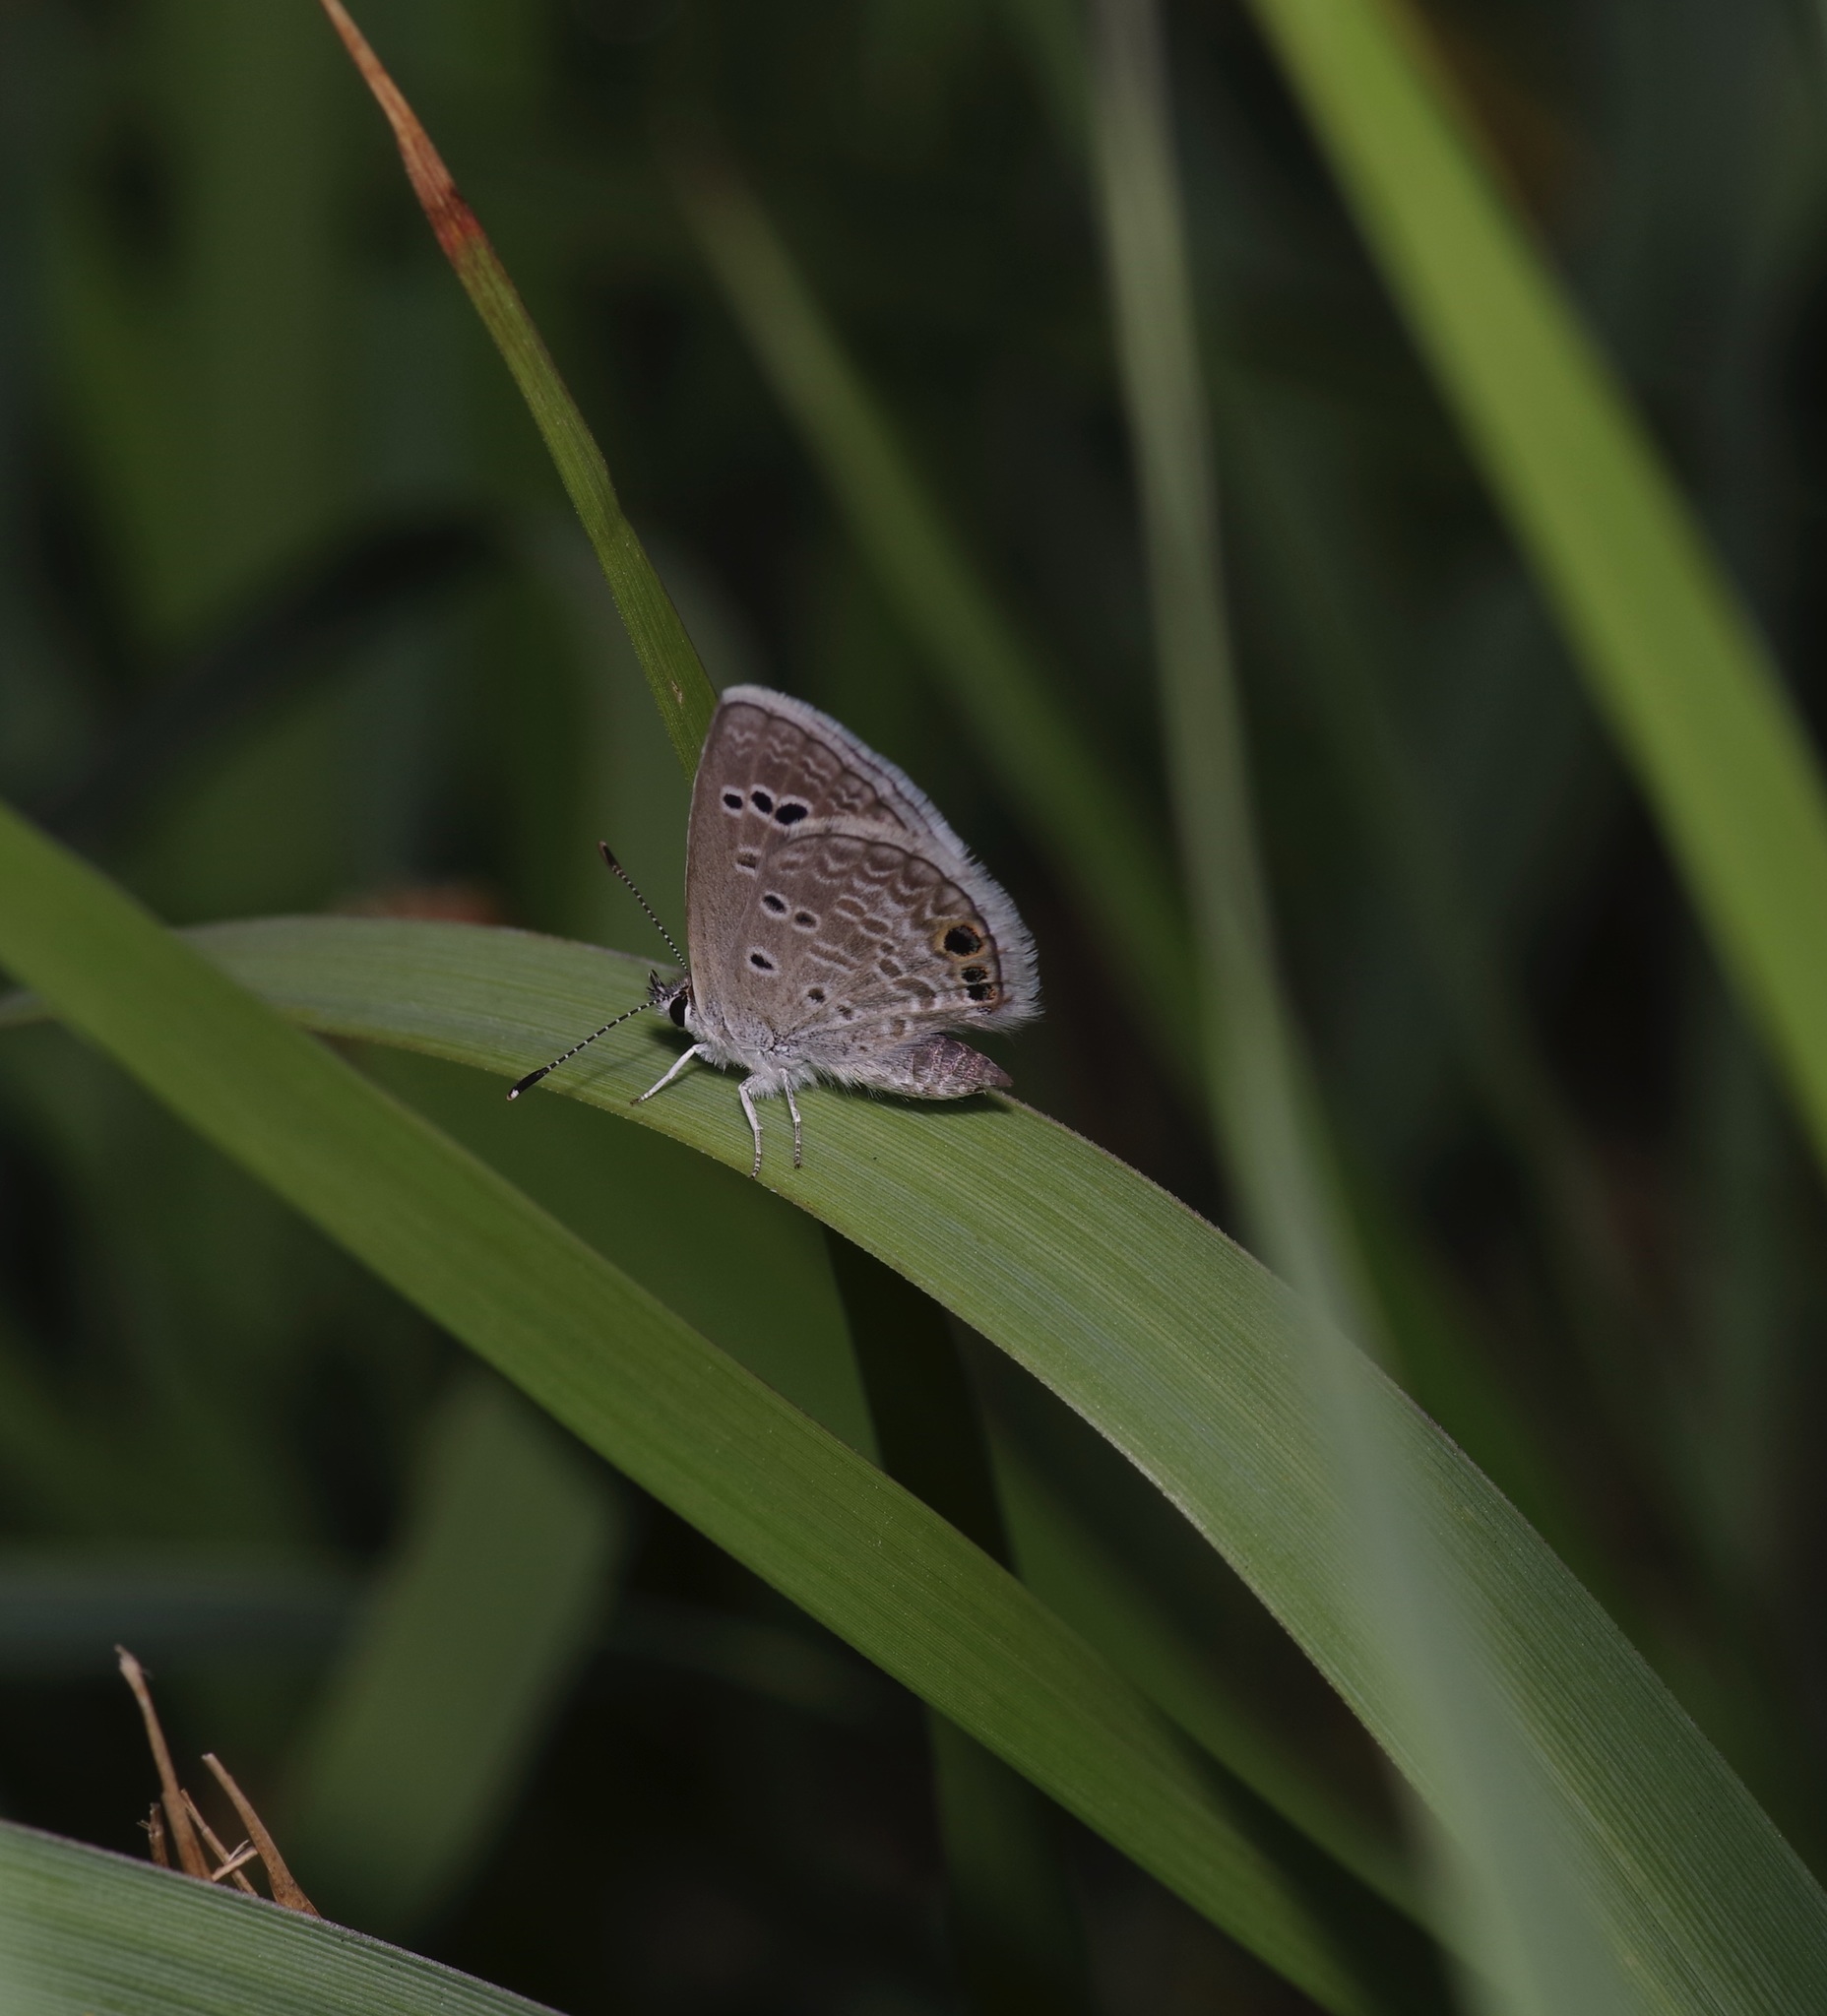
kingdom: Animalia
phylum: Arthropoda
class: Insecta
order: Lepidoptera
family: Lycaenidae
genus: Echinargus
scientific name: Echinargus isola
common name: Reakirt's blue
